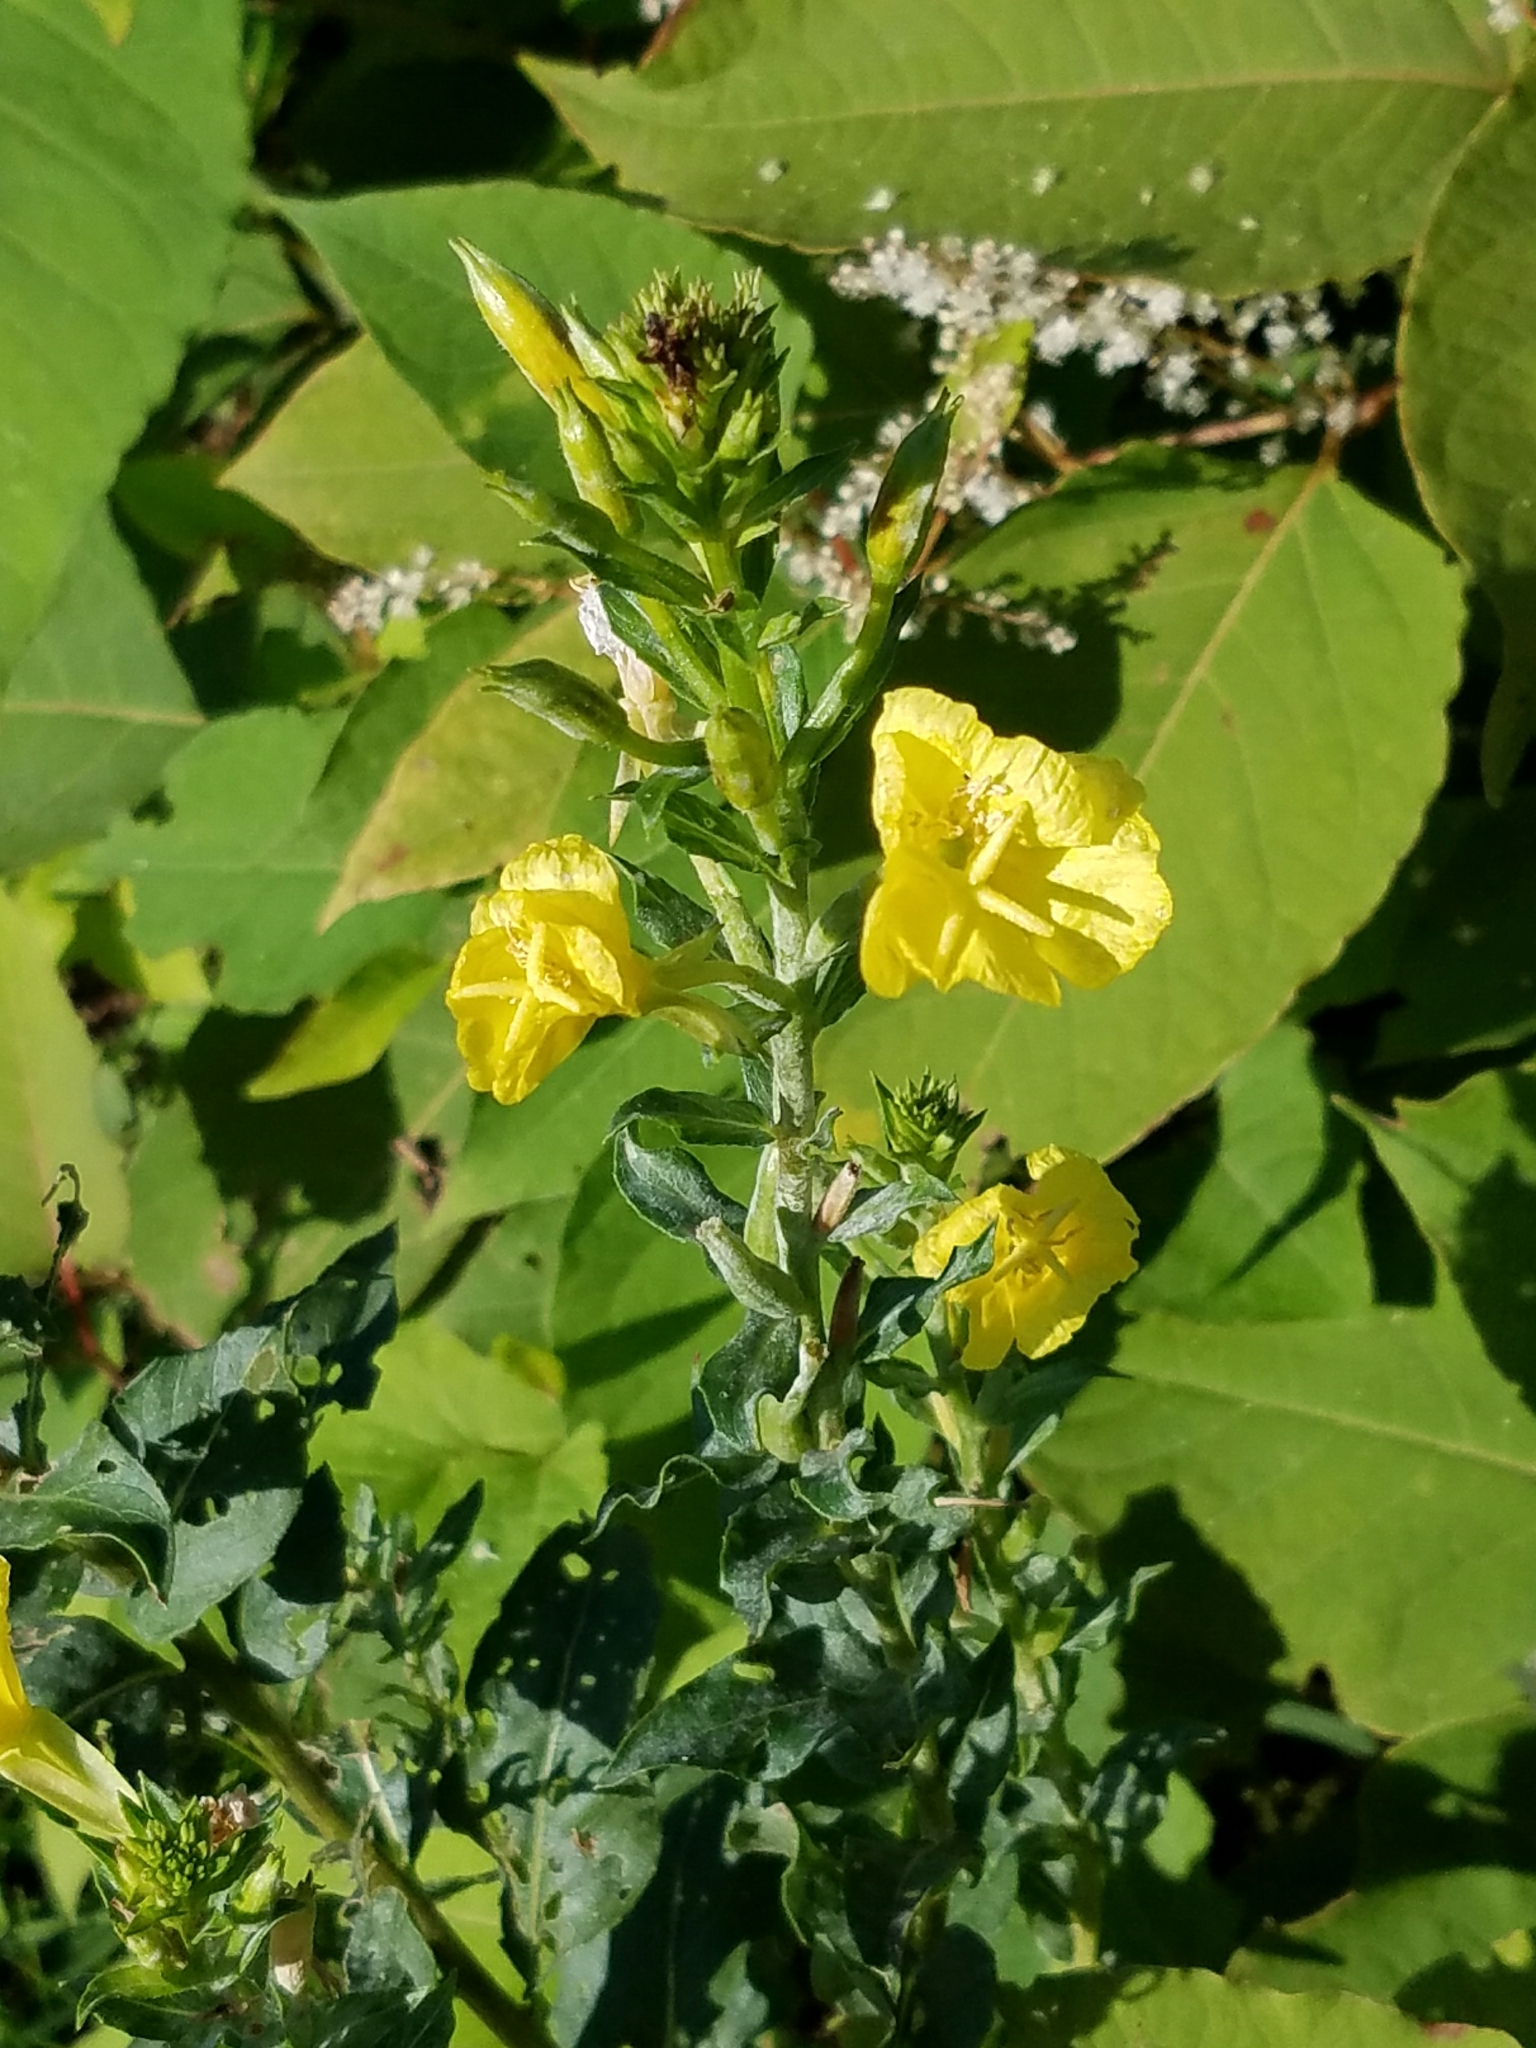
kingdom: Plantae
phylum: Tracheophyta
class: Magnoliopsida
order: Myrtales
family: Onagraceae
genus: Oenothera
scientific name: Oenothera biennis
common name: Common evening-primrose
